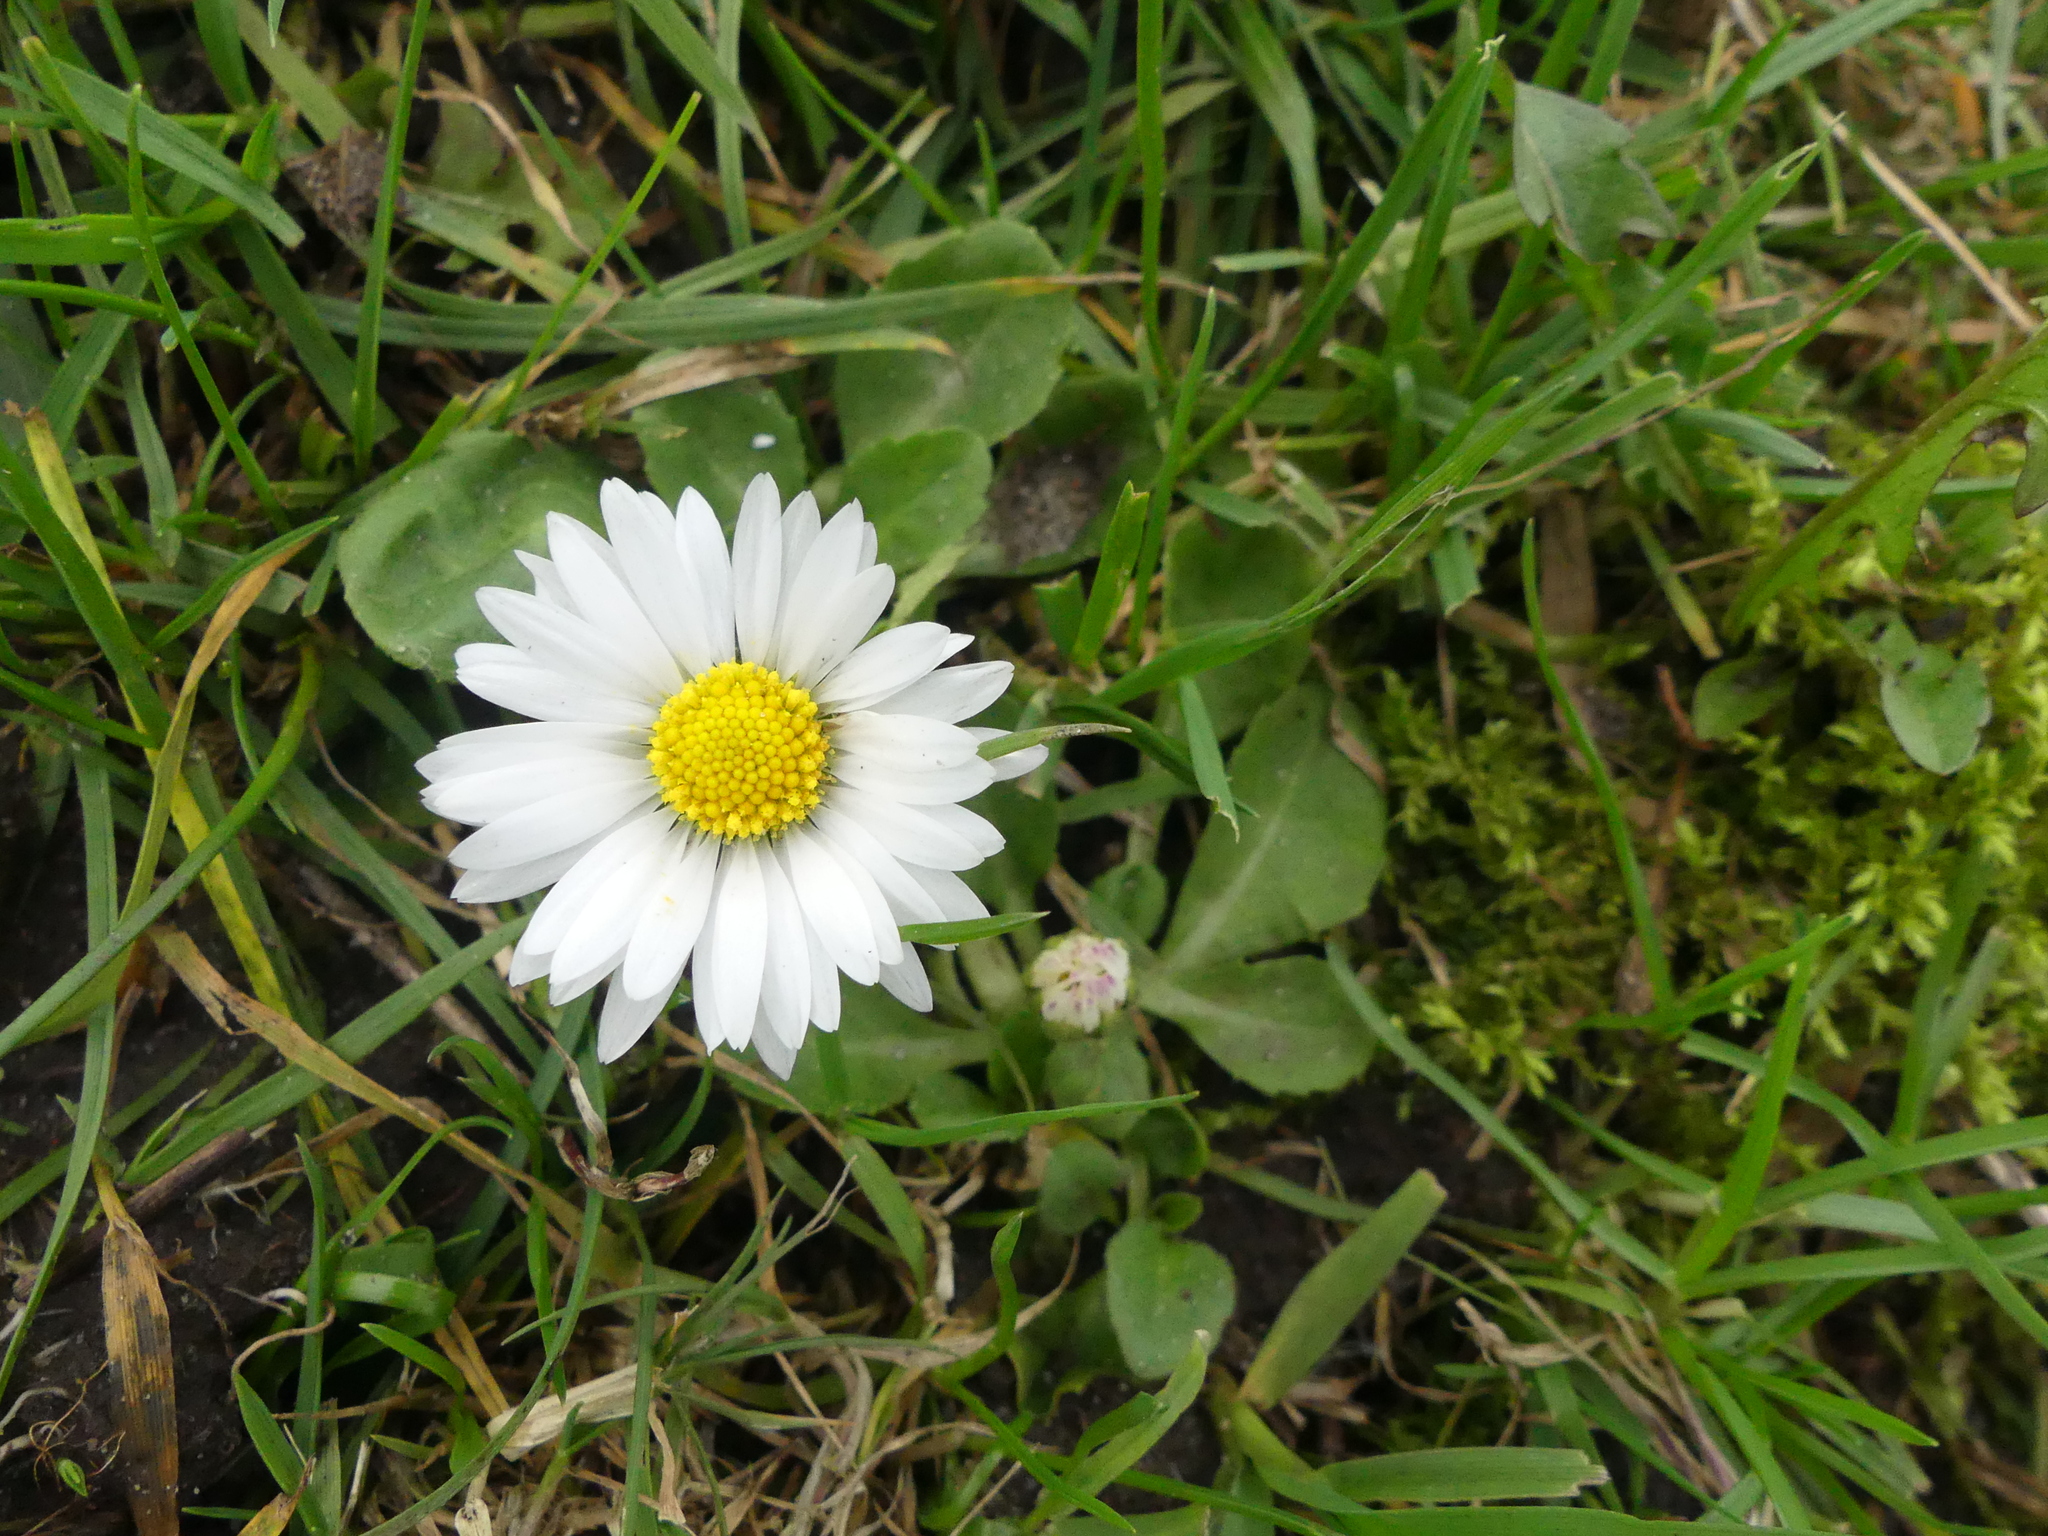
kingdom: Plantae
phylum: Tracheophyta
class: Magnoliopsida
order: Asterales
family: Asteraceae
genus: Bellis
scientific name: Bellis perennis
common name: Lawndaisy
